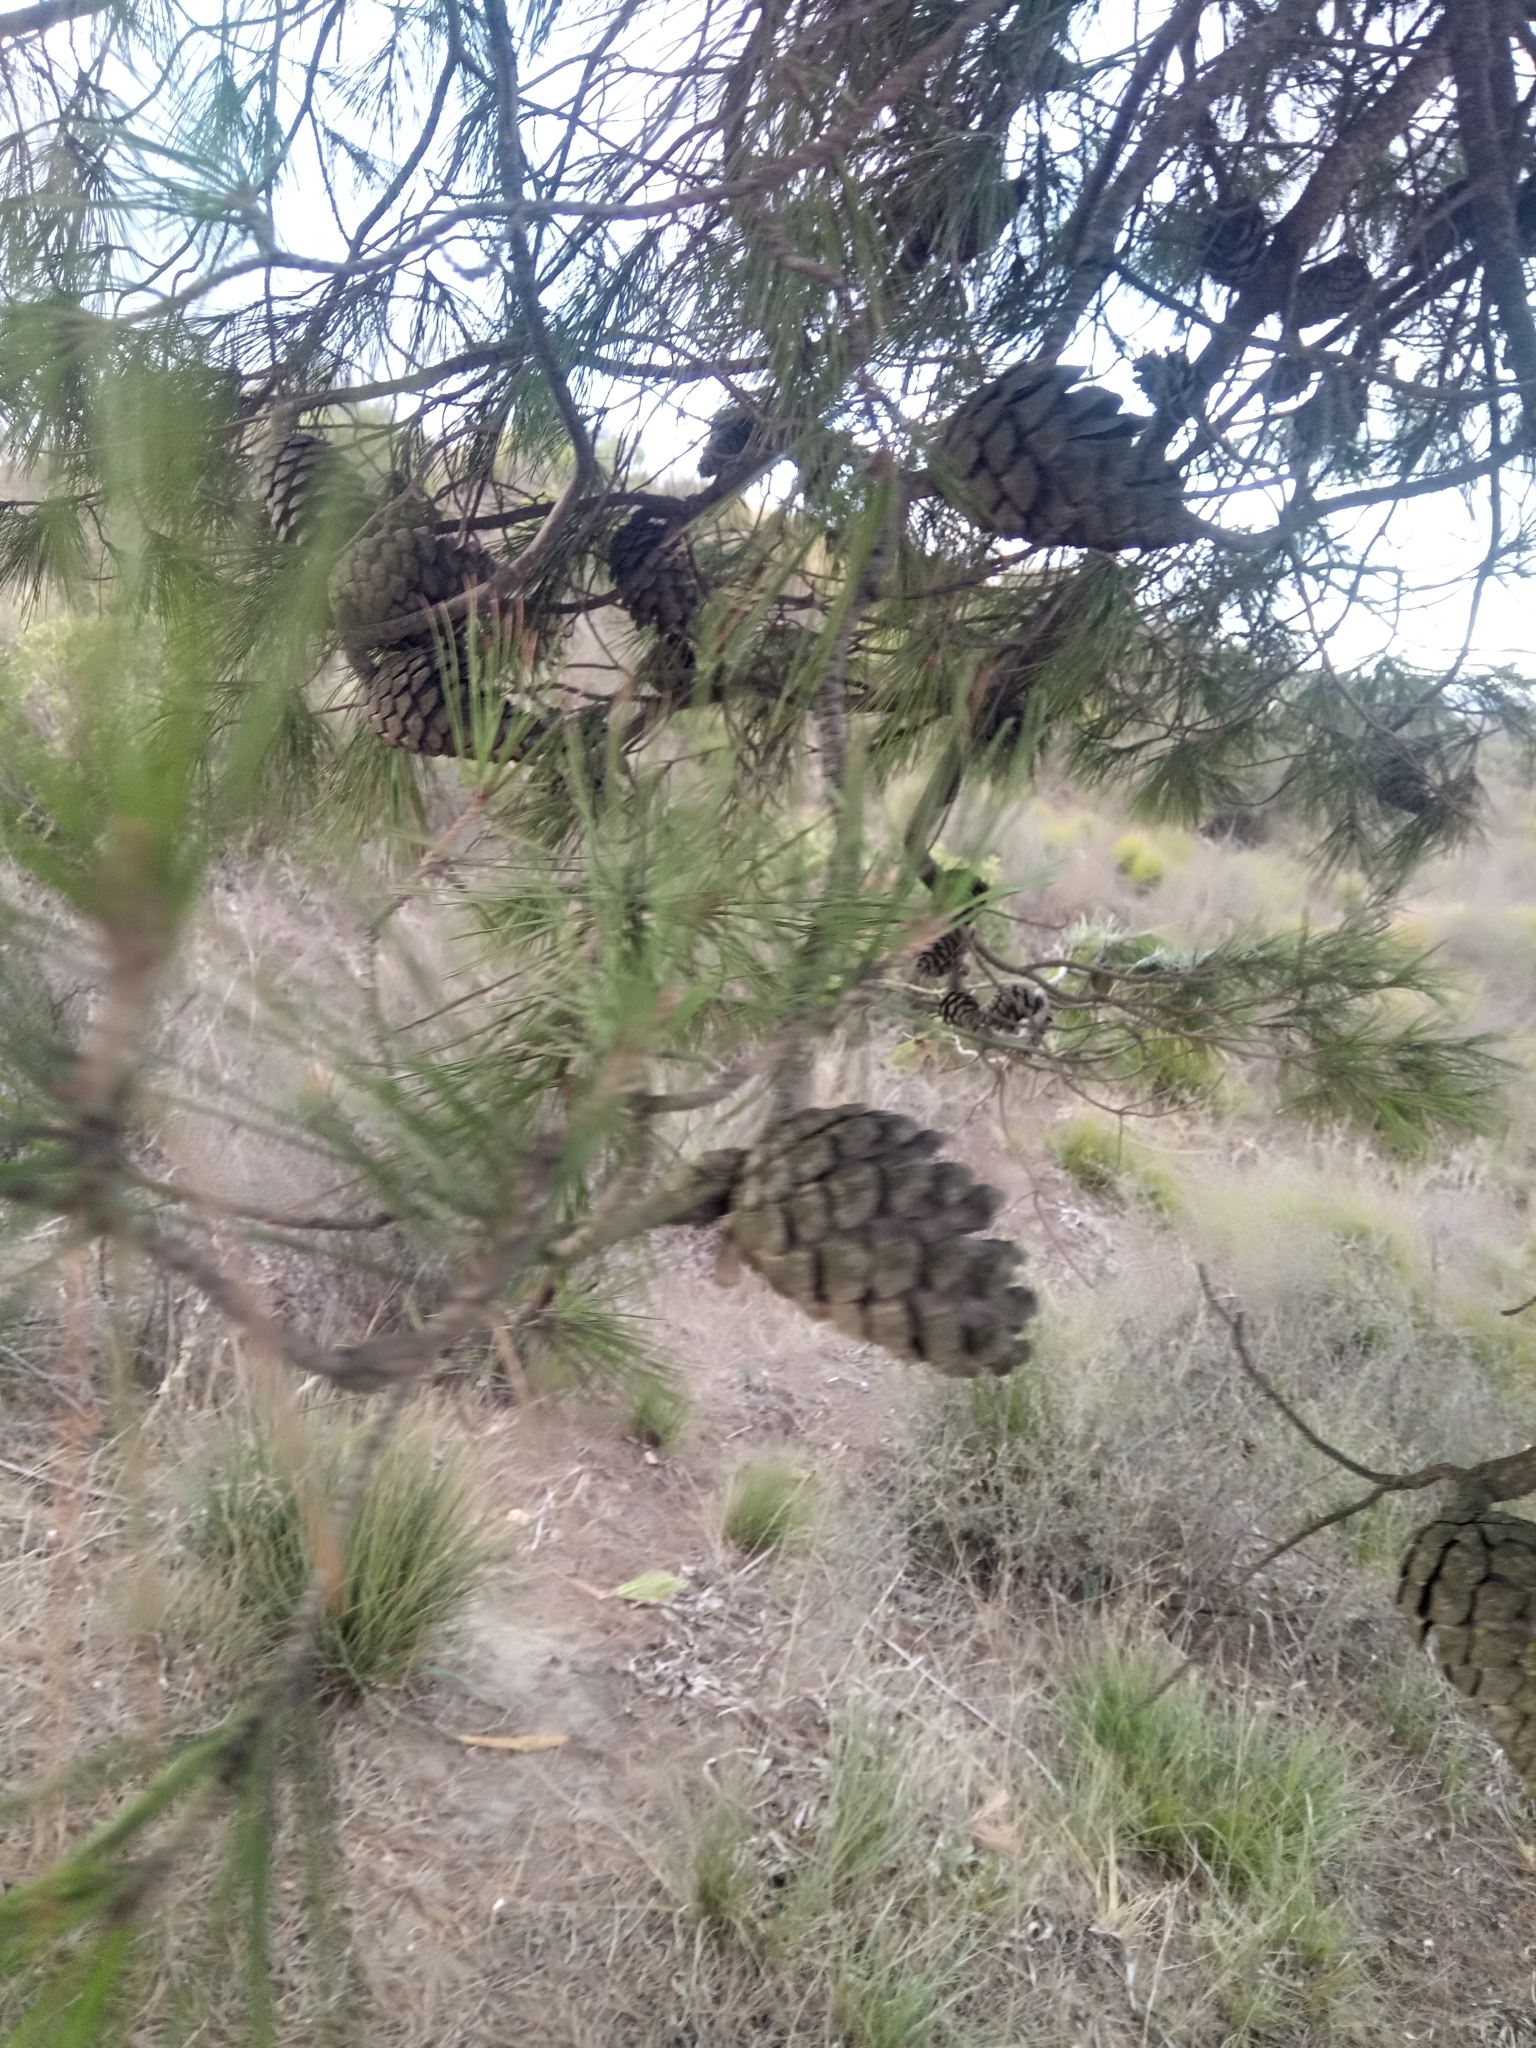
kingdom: Plantae
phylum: Tracheophyta
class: Pinopsida
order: Pinales
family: Pinaceae
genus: Pinus
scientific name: Pinus halepensis
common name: Aleppo pine
